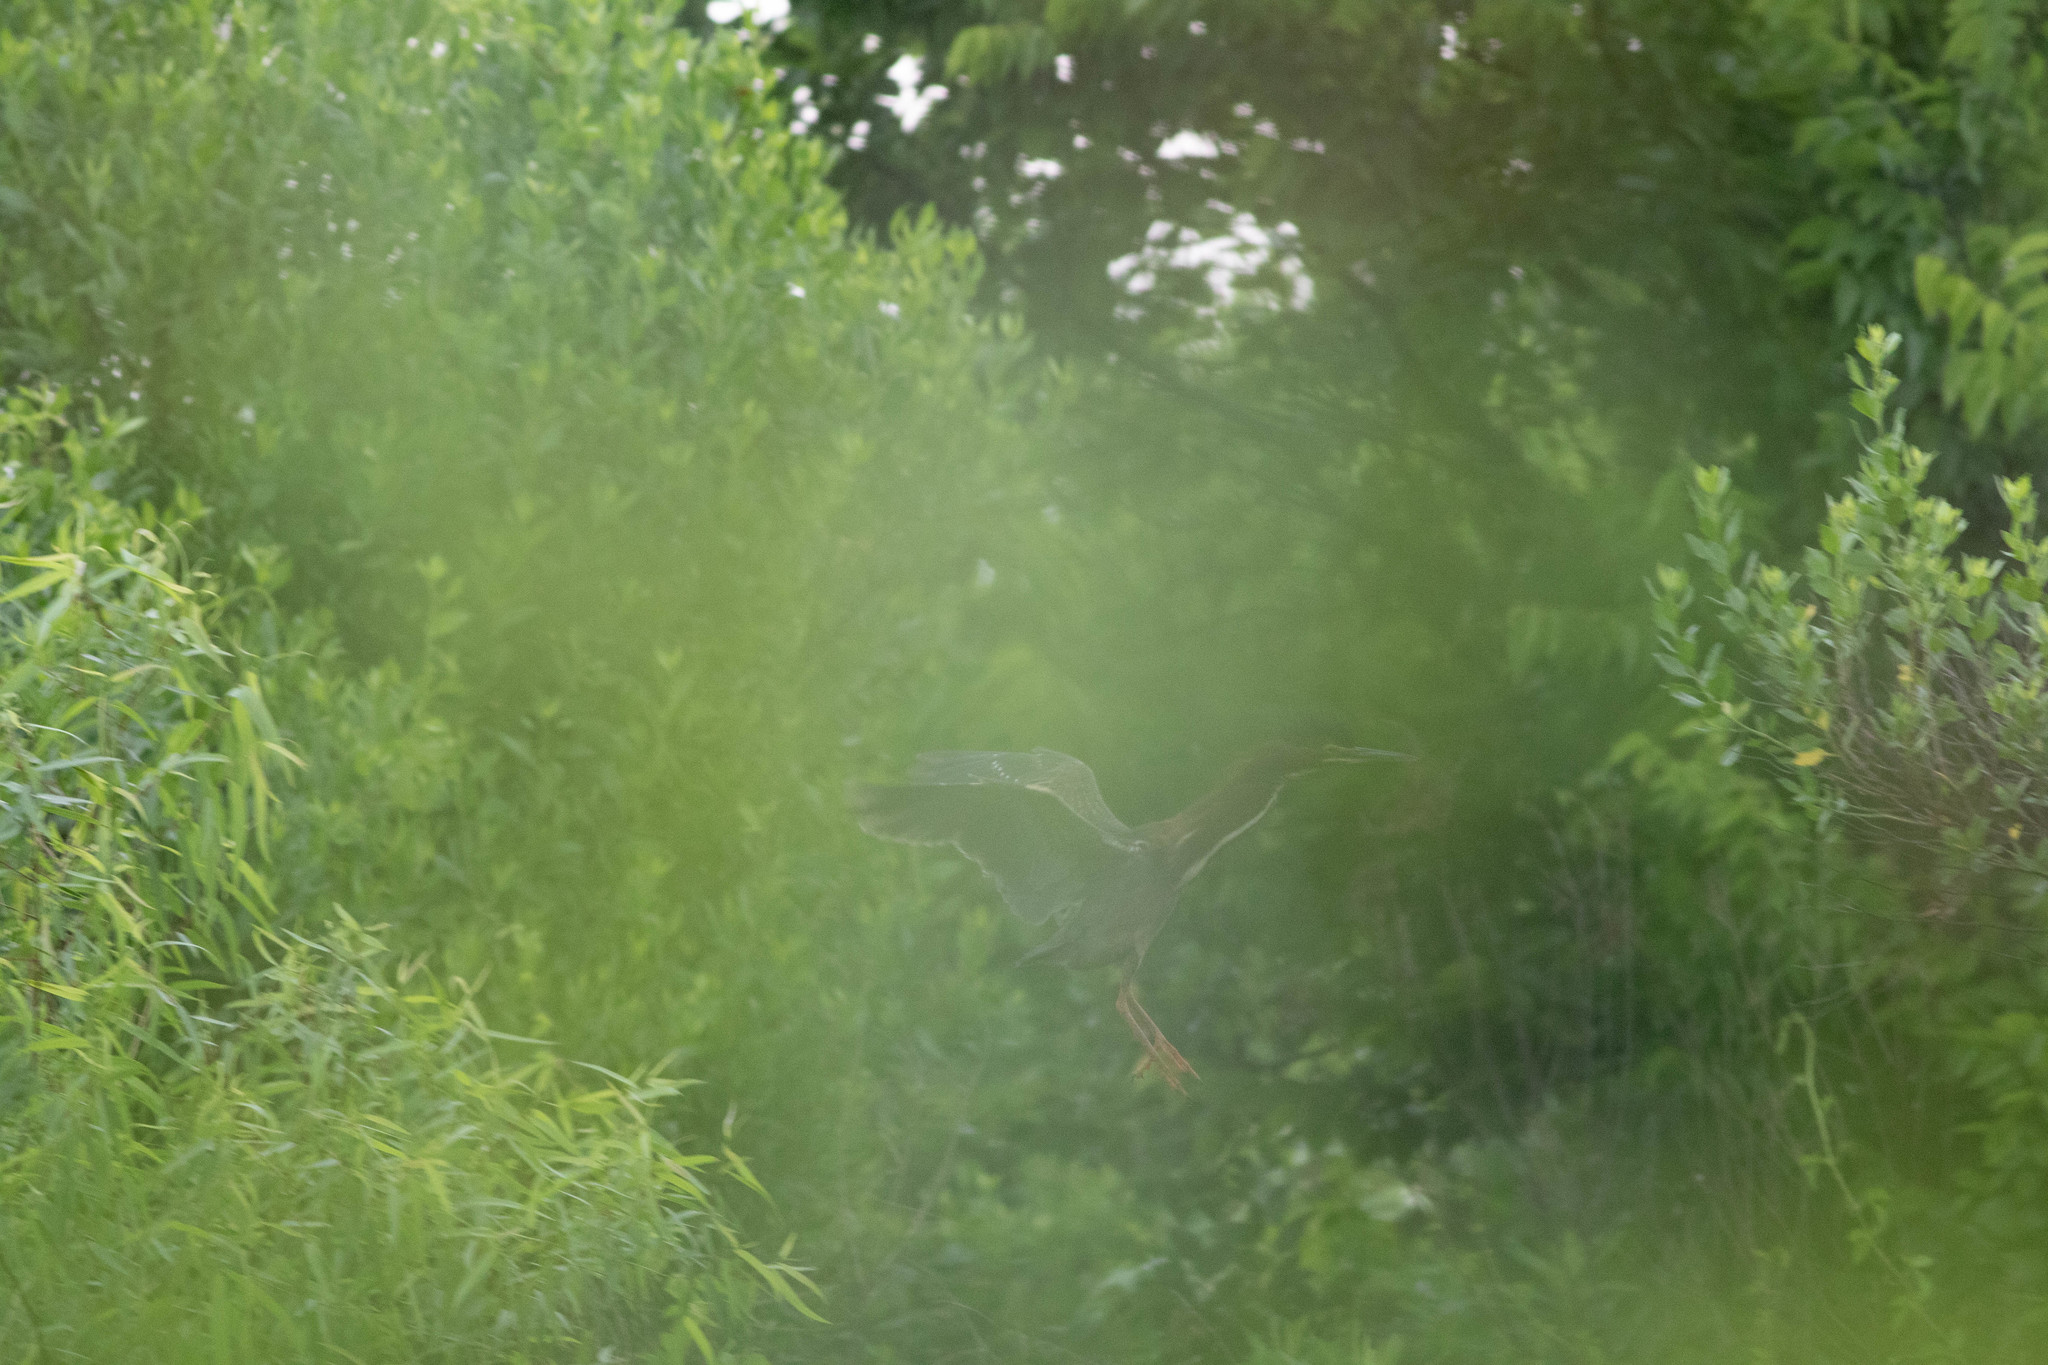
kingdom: Animalia
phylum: Chordata
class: Aves
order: Pelecaniformes
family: Ardeidae
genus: Butorides
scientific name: Butorides virescens
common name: Green heron
